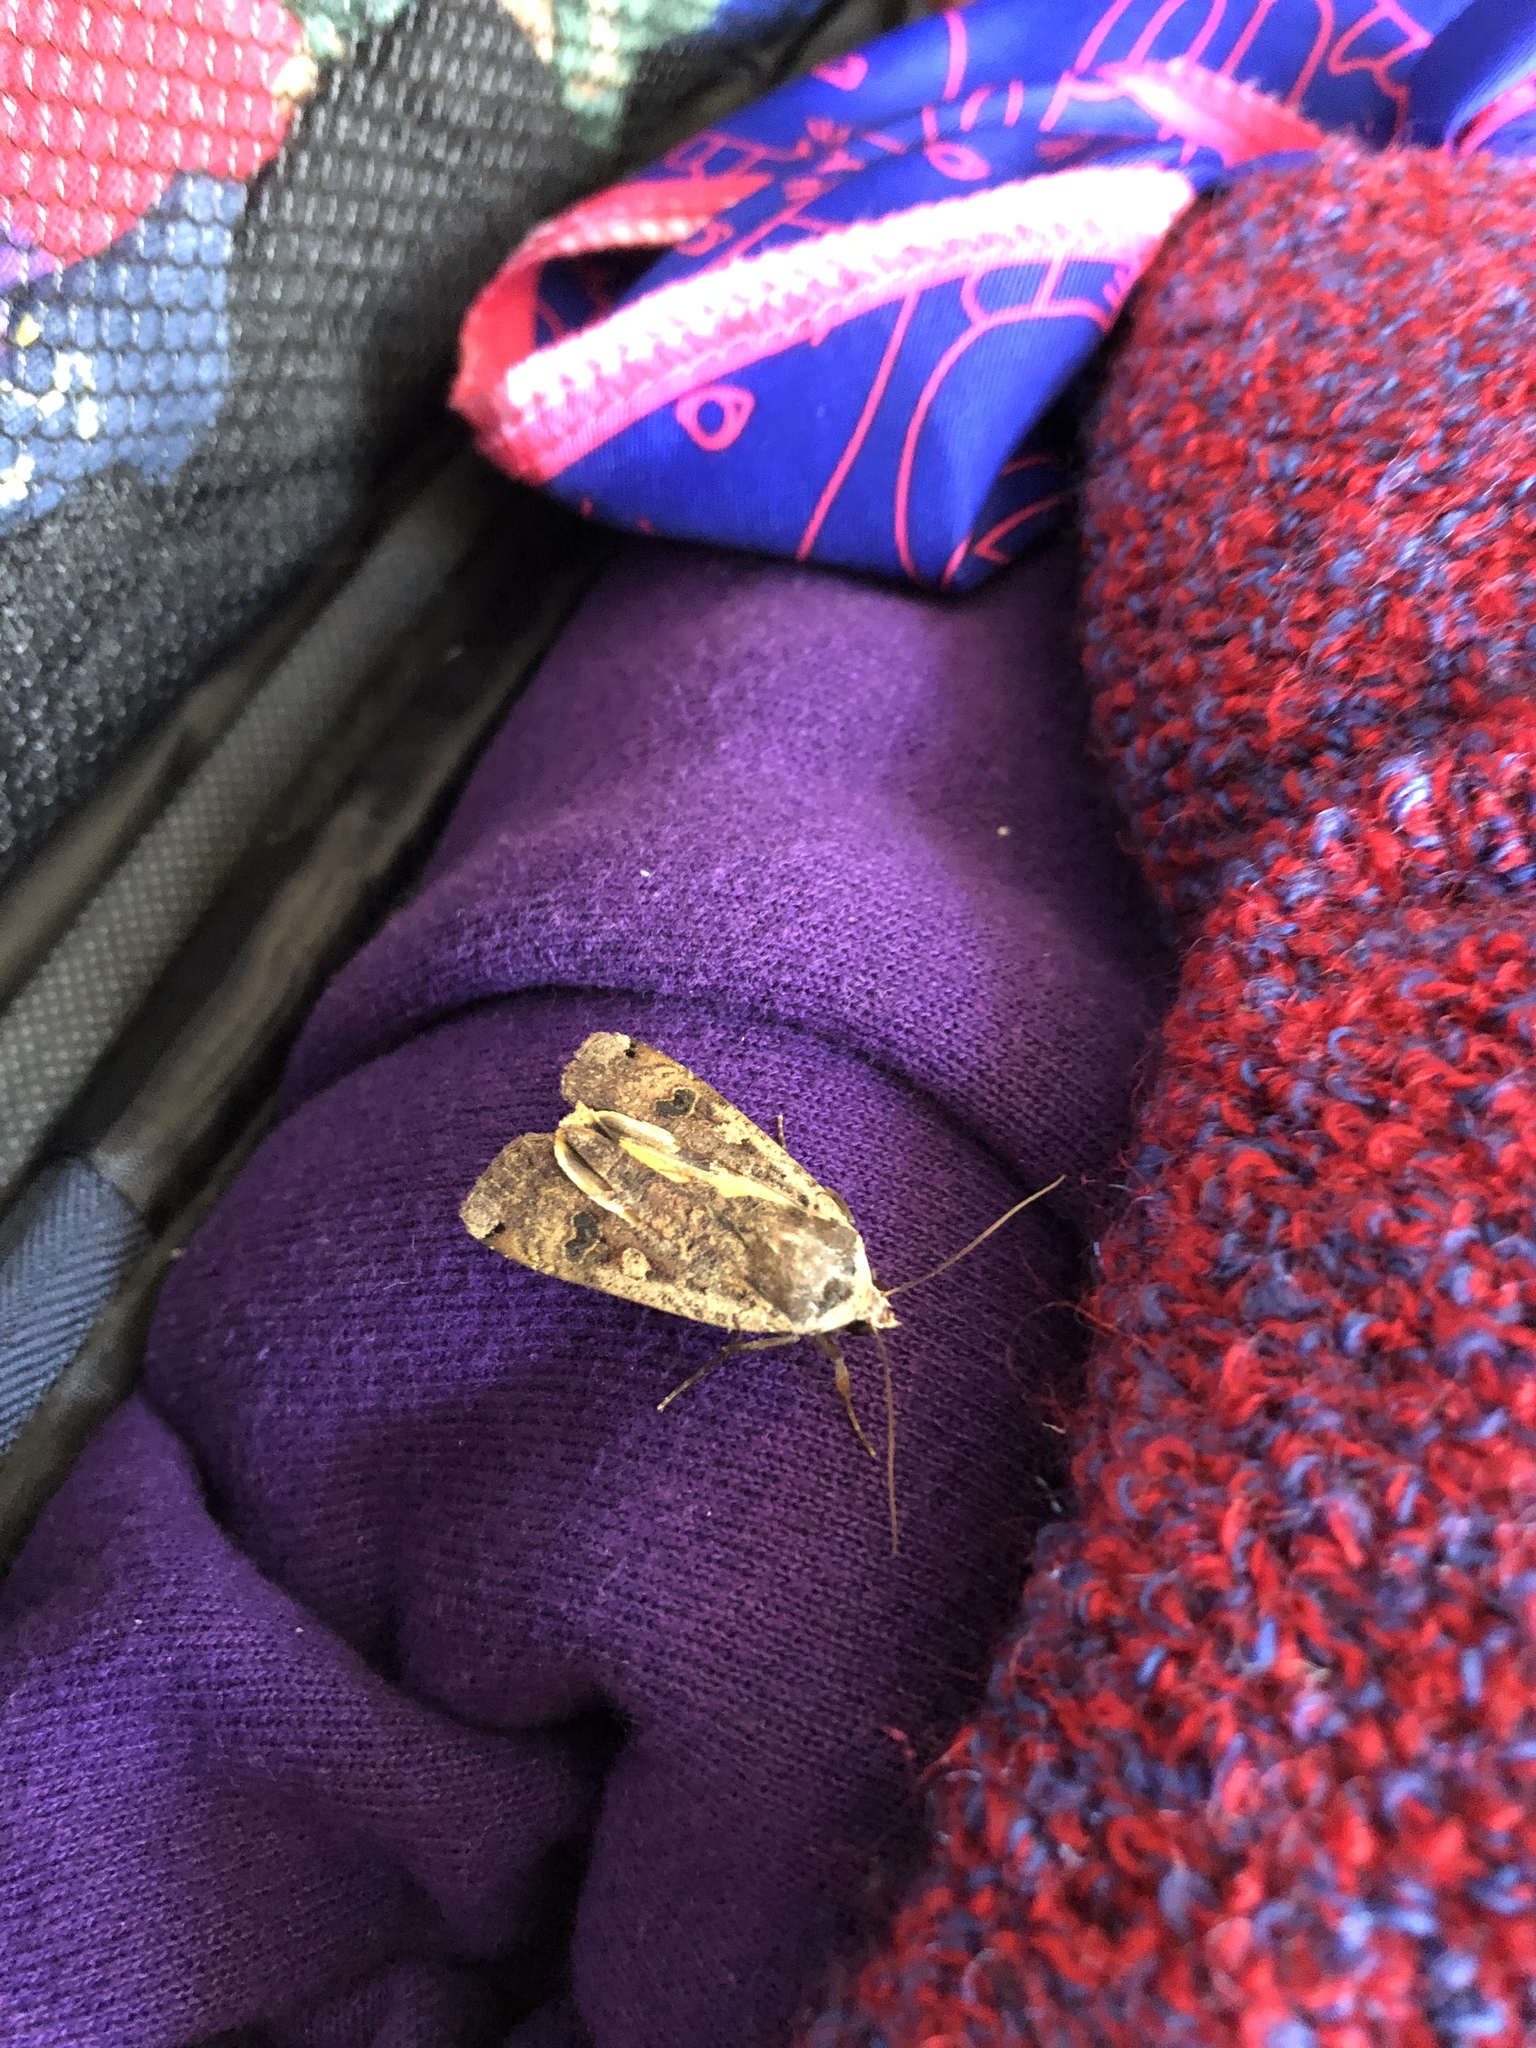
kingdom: Animalia
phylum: Arthropoda
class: Insecta
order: Lepidoptera
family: Noctuidae
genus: Noctua
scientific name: Noctua pronuba
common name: Large yellow underwing
